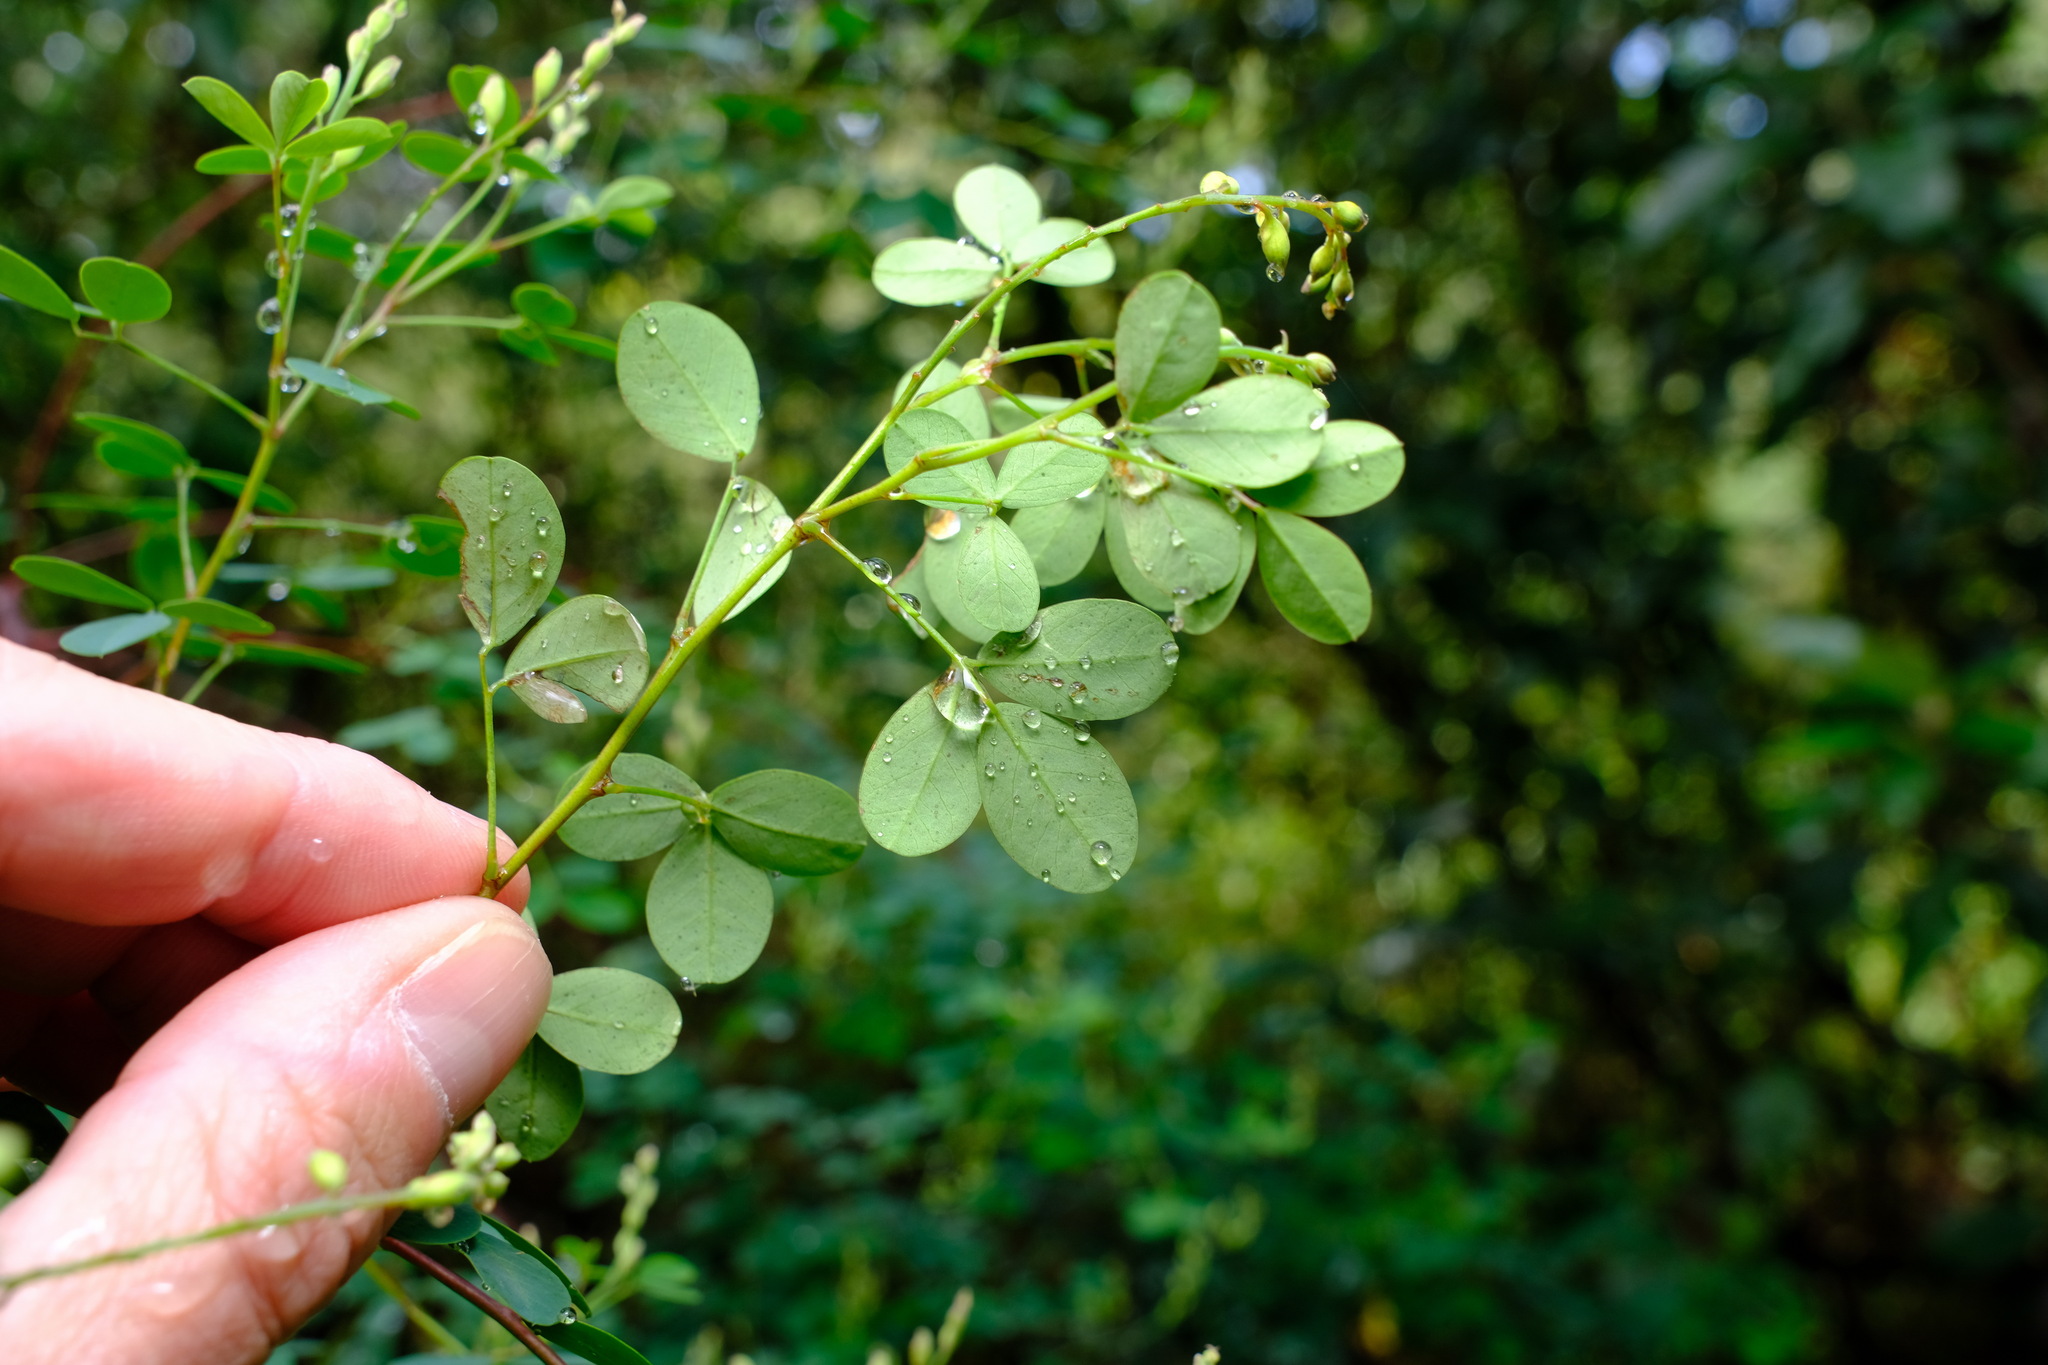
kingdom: Plantae
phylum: Tracheophyta
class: Magnoliopsida
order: Fabales
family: Fabaceae
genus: Goodia
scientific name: Goodia lotifolia
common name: Cloverleaf-poison
